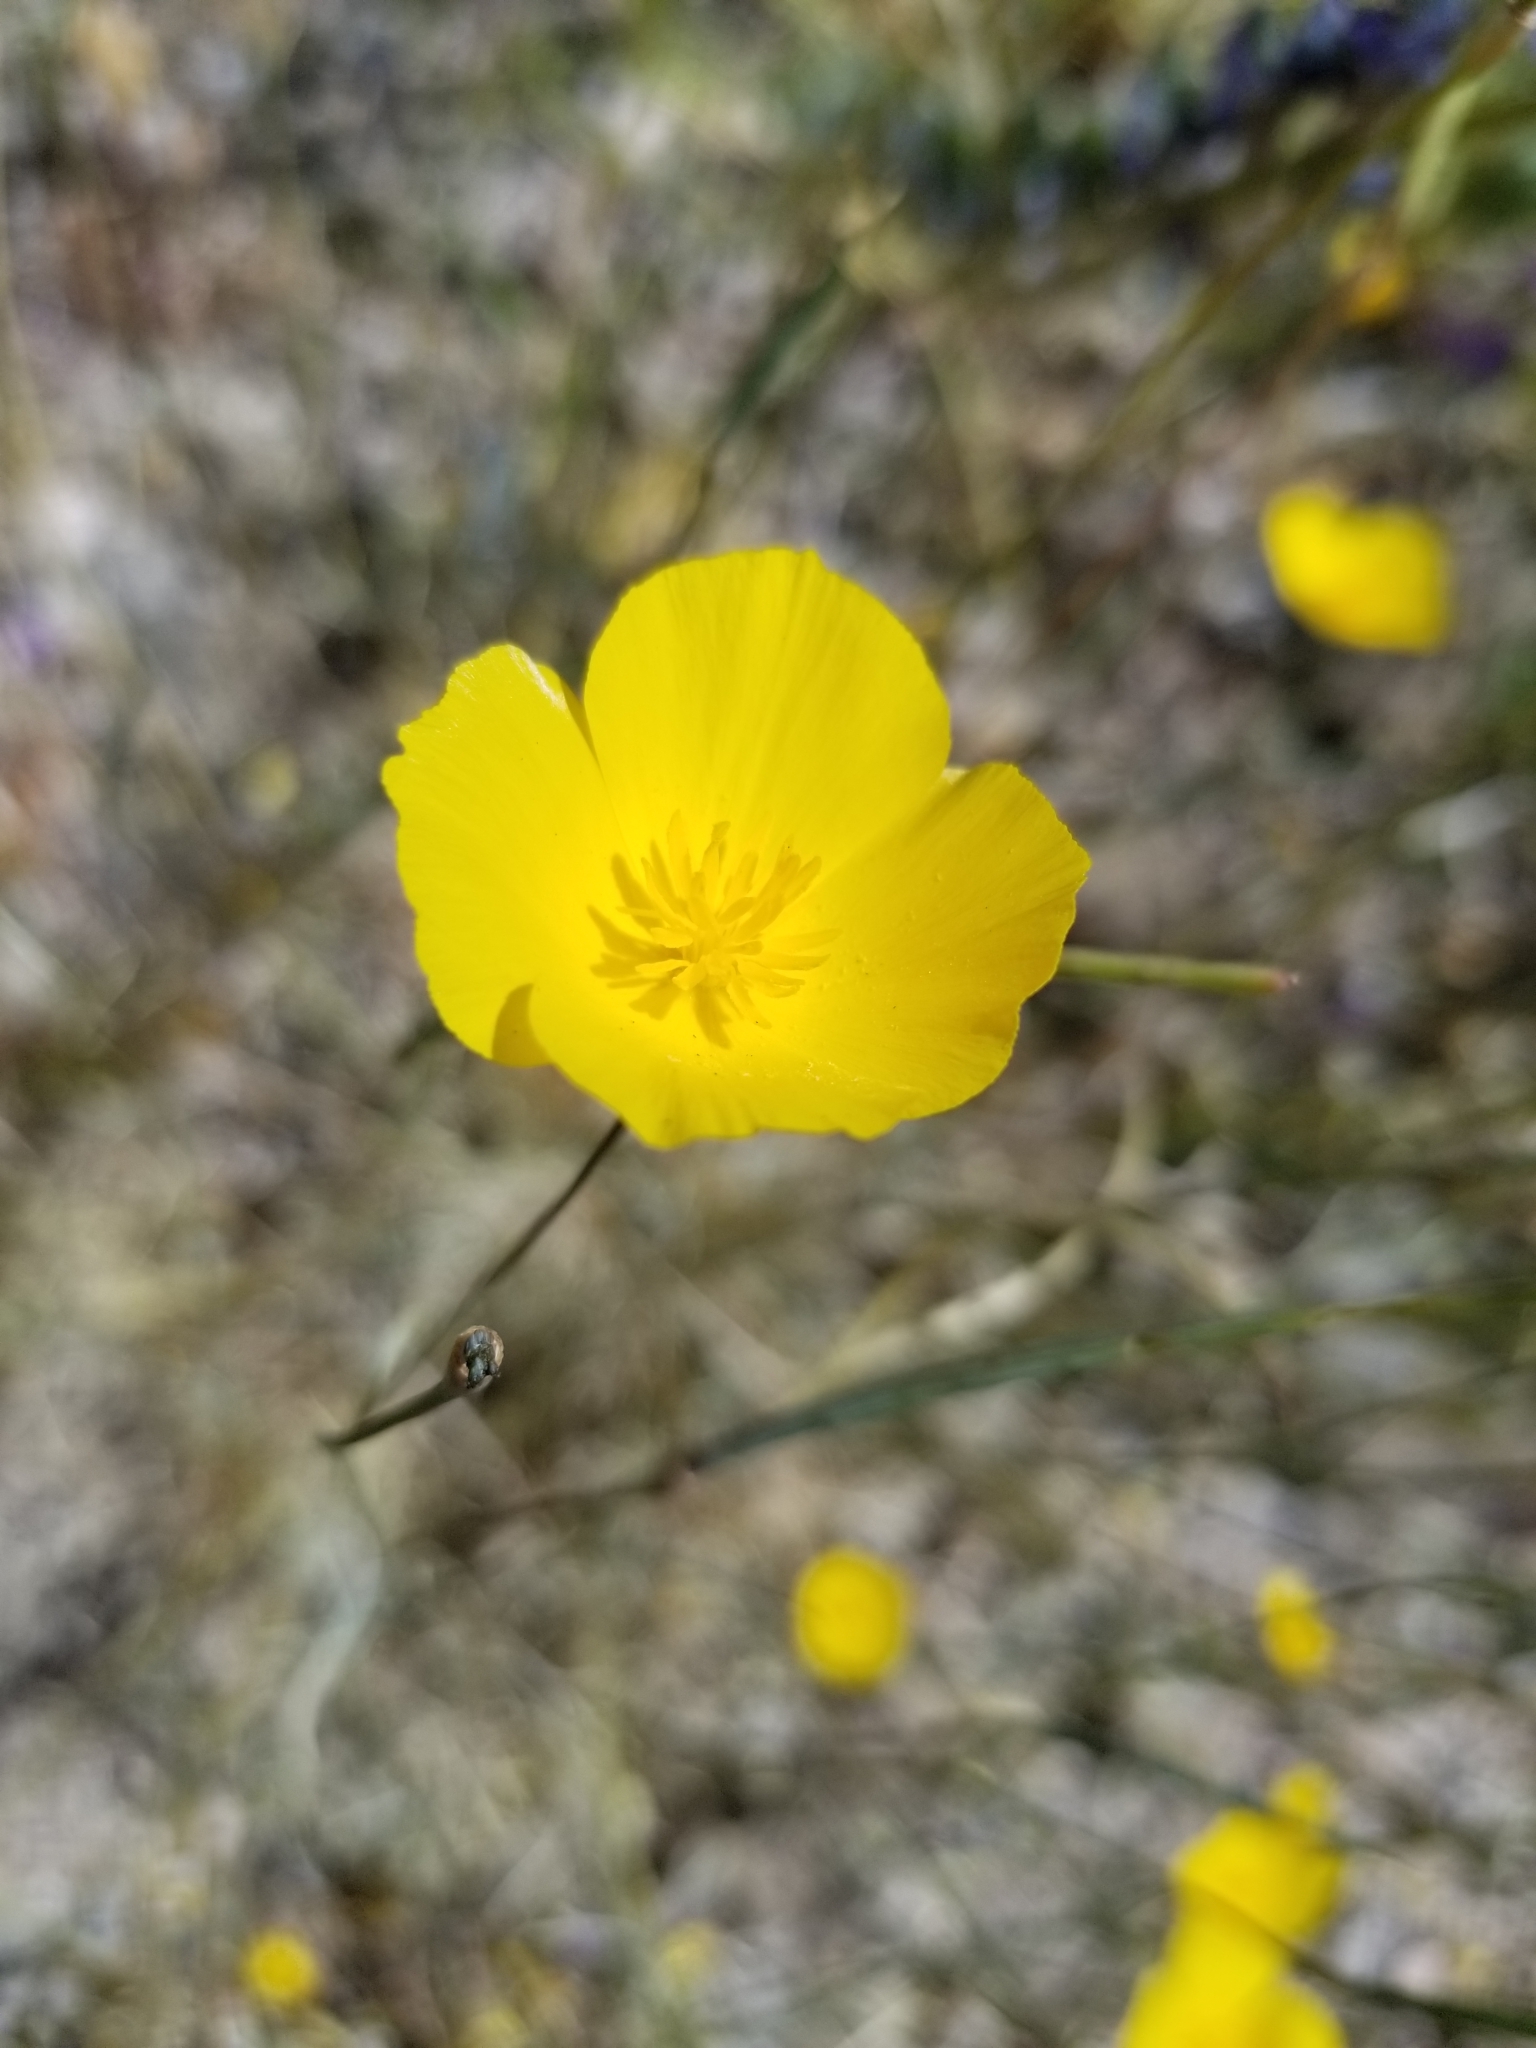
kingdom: Plantae
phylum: Tracheophyta
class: Magnoliopsida
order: Ranunculales
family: Papaveraceae
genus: Eschscholzia
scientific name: Eschscholzia parishii
